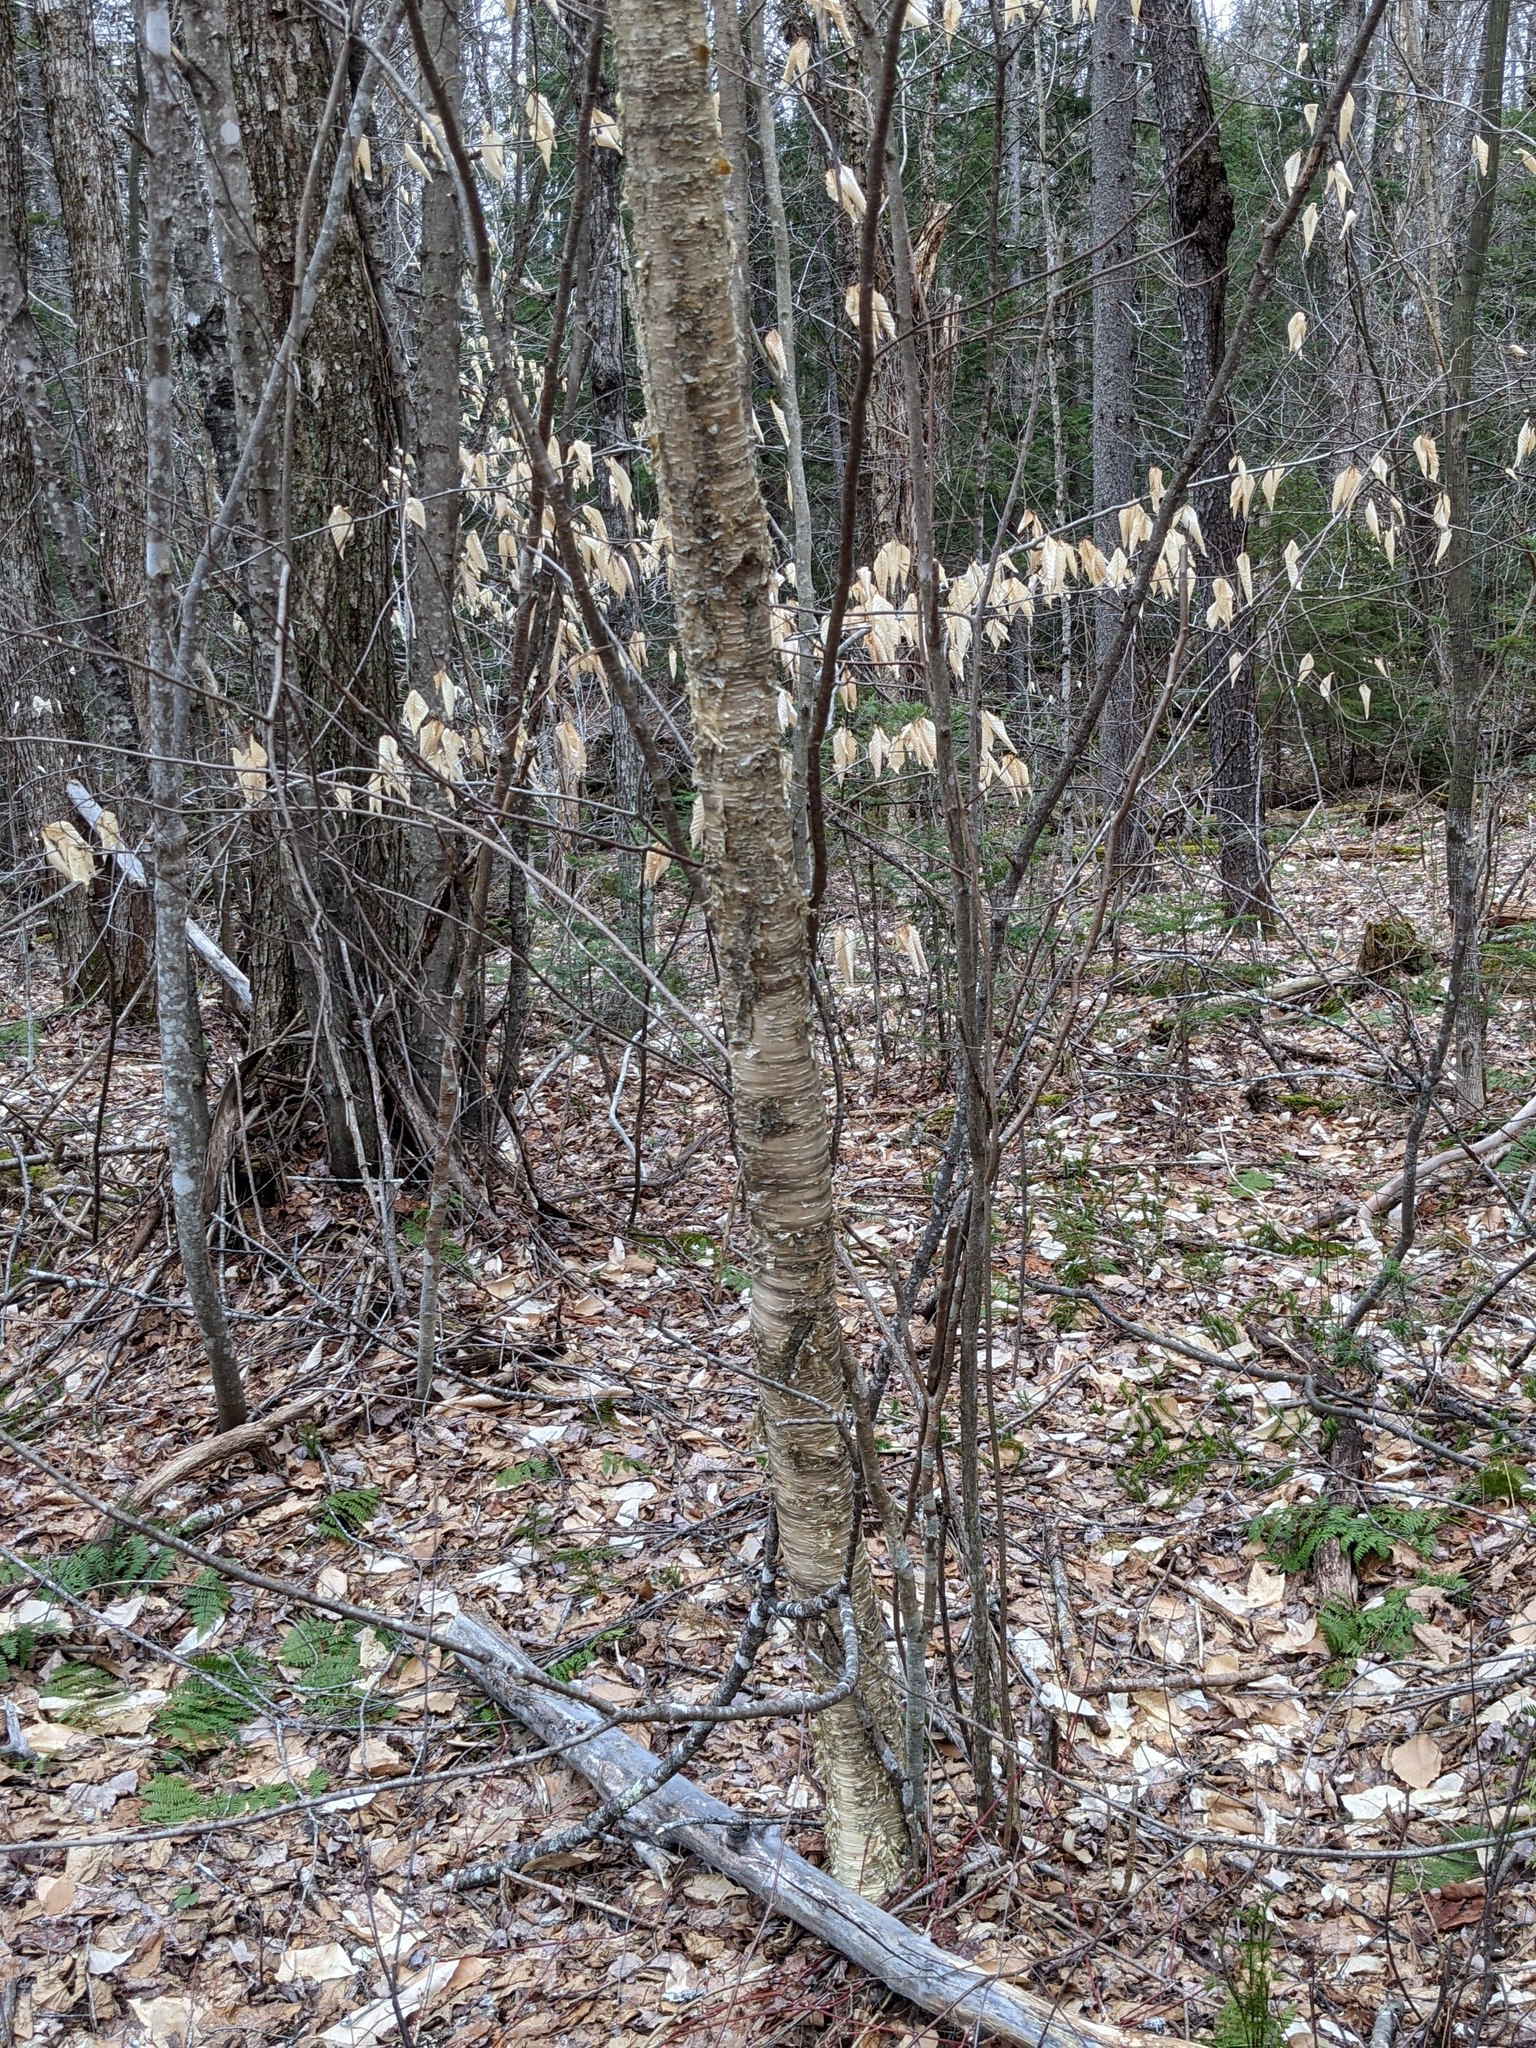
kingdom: Plantae
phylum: Tracheophyta
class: Magnoliopsida
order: Fagales
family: Fagaceae
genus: Fagus
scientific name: Fagus grandifolia
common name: American beech
